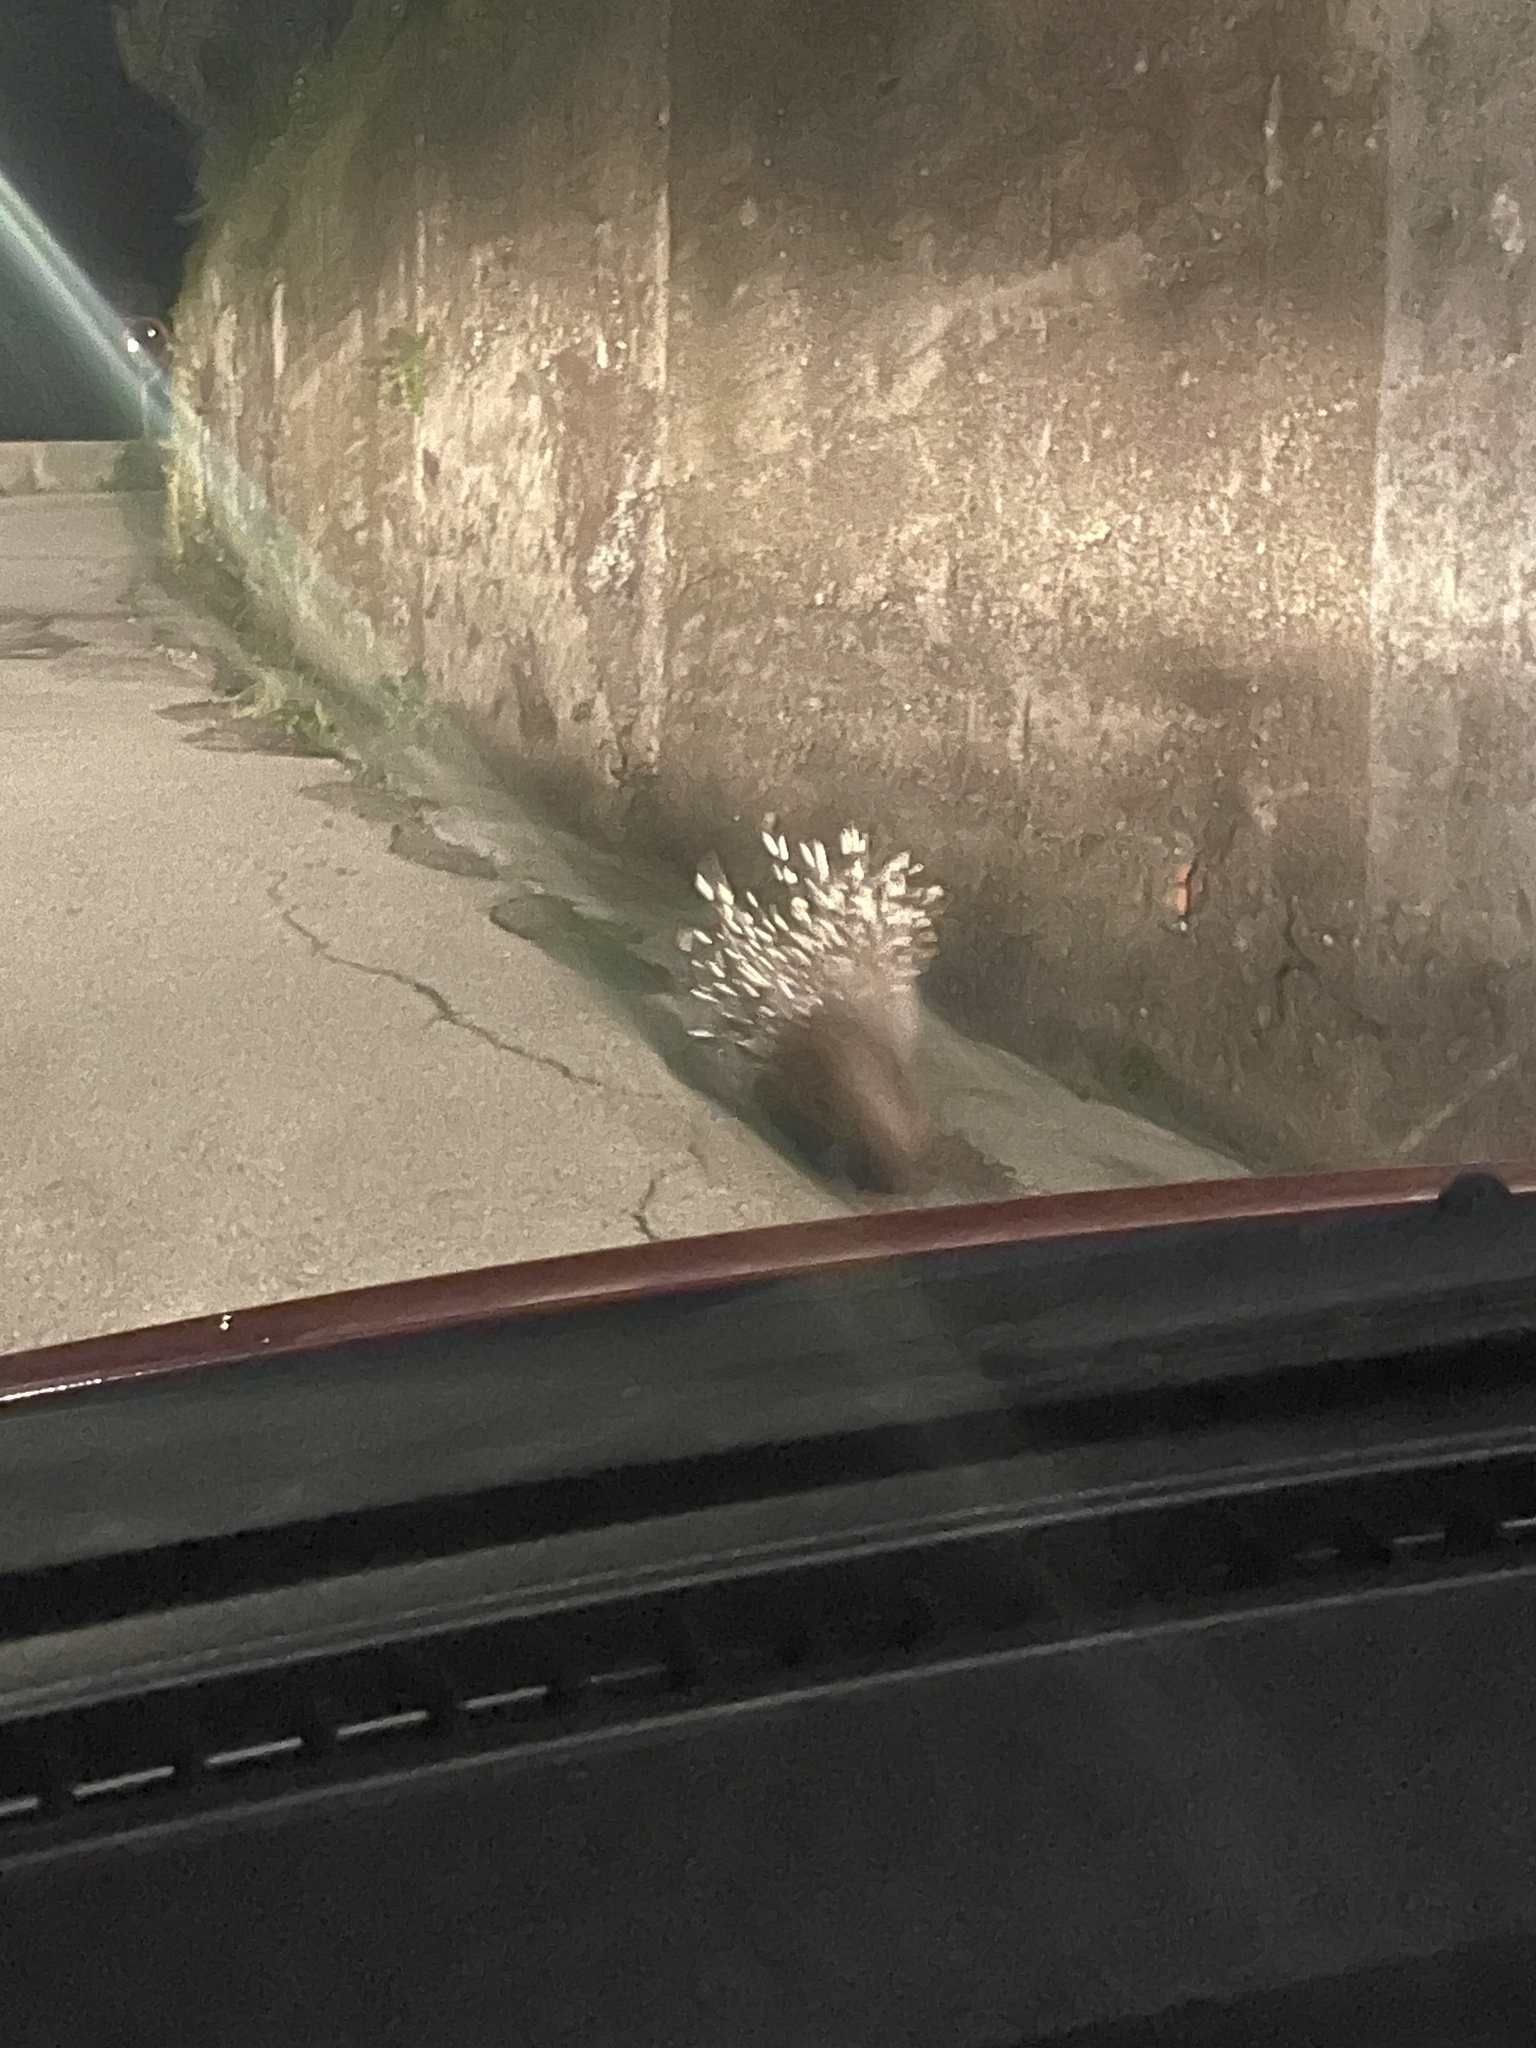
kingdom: Animalia
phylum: Chordata
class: Mammalia
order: Rodentia
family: Hystricidae
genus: Hystrix
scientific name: Hystrix cristata
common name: Crested porcupine
